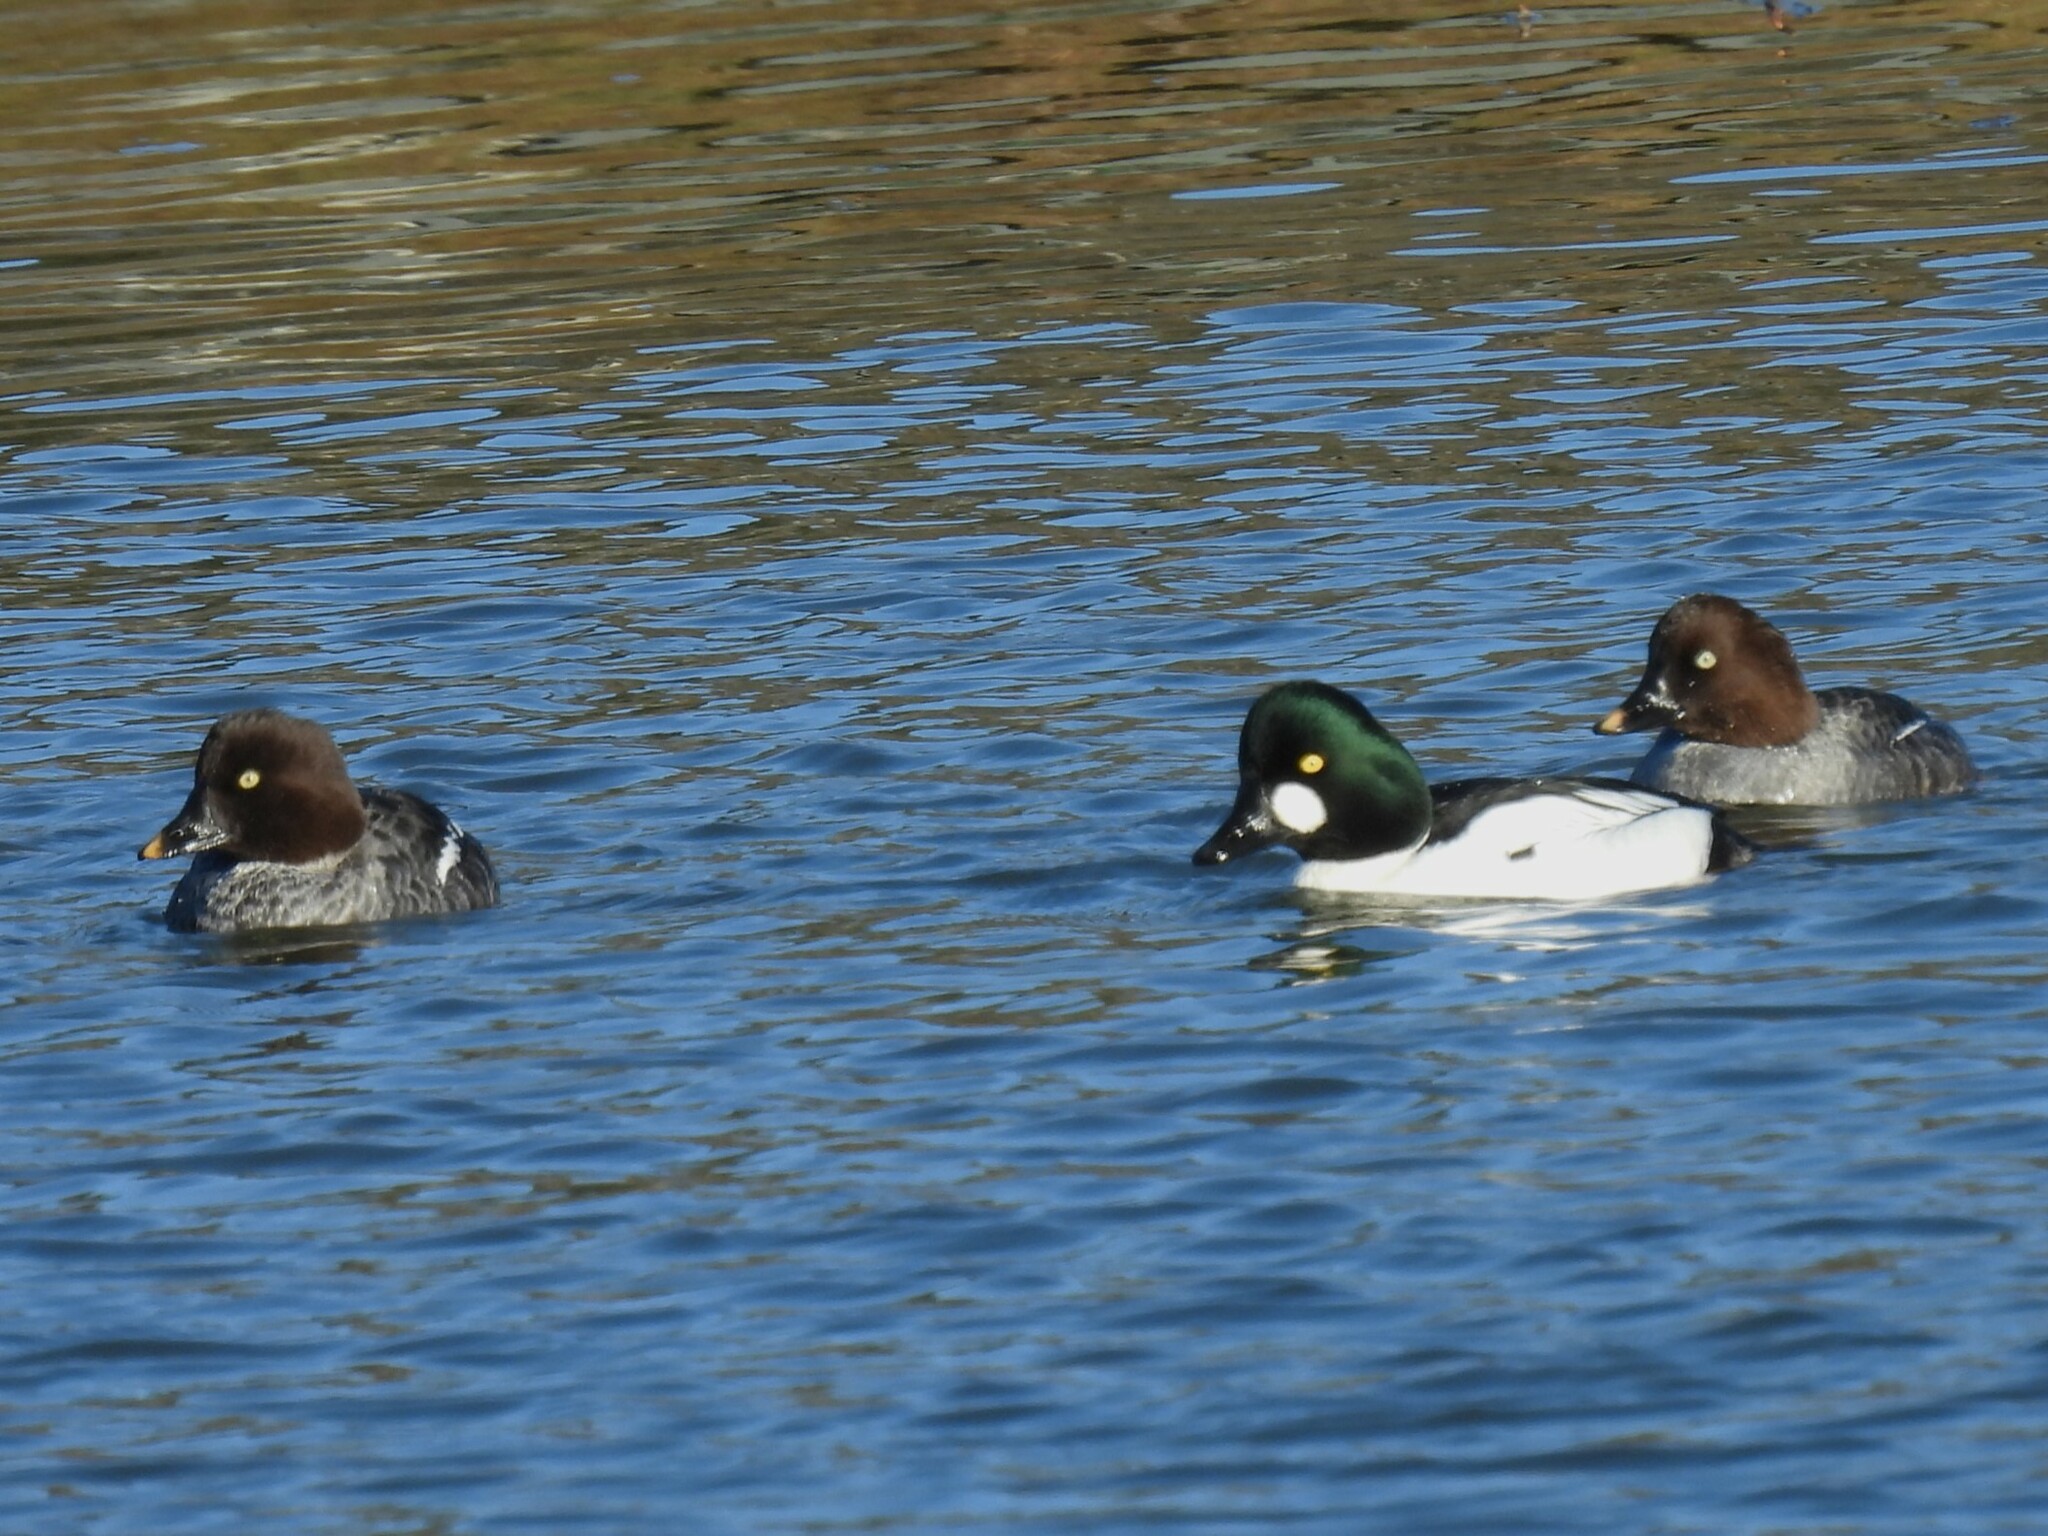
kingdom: Animalia
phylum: Chordata
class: Aves
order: Anseriformes
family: Anatidae
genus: Bucephala
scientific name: Bucephala clangula
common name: Common goldeneye
